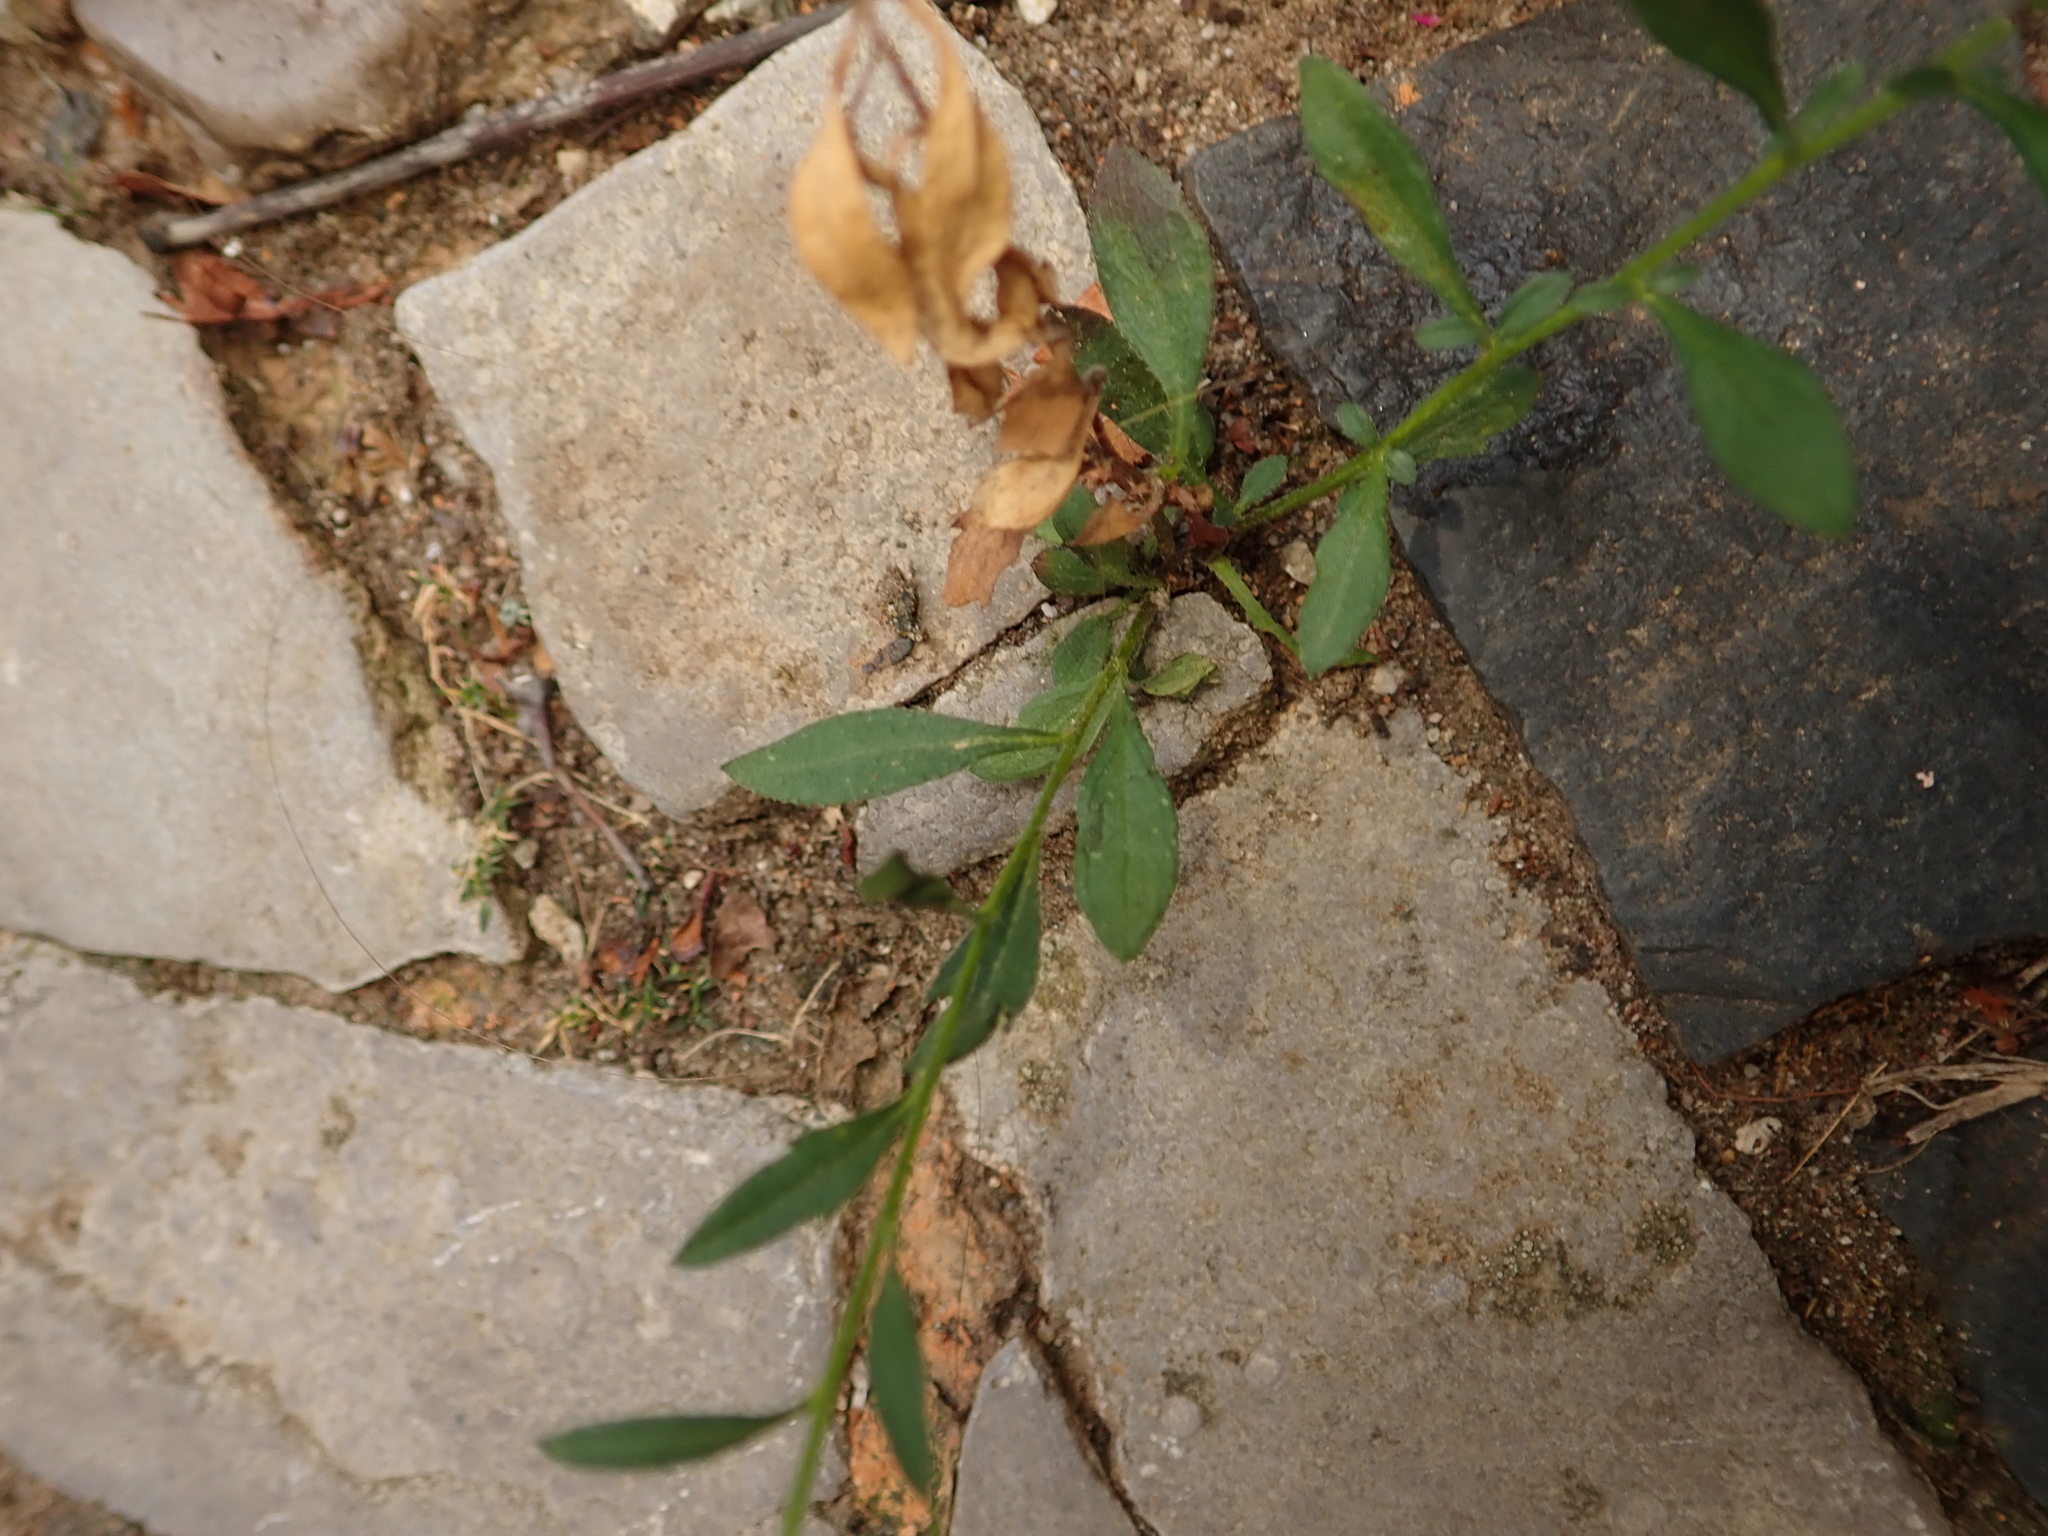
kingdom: Plantae
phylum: Tracheophyta
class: Magnoliopsida
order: Asterales
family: Asteraceae
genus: Erigeron
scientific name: Erigeron annuus
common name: Tall fleabane
